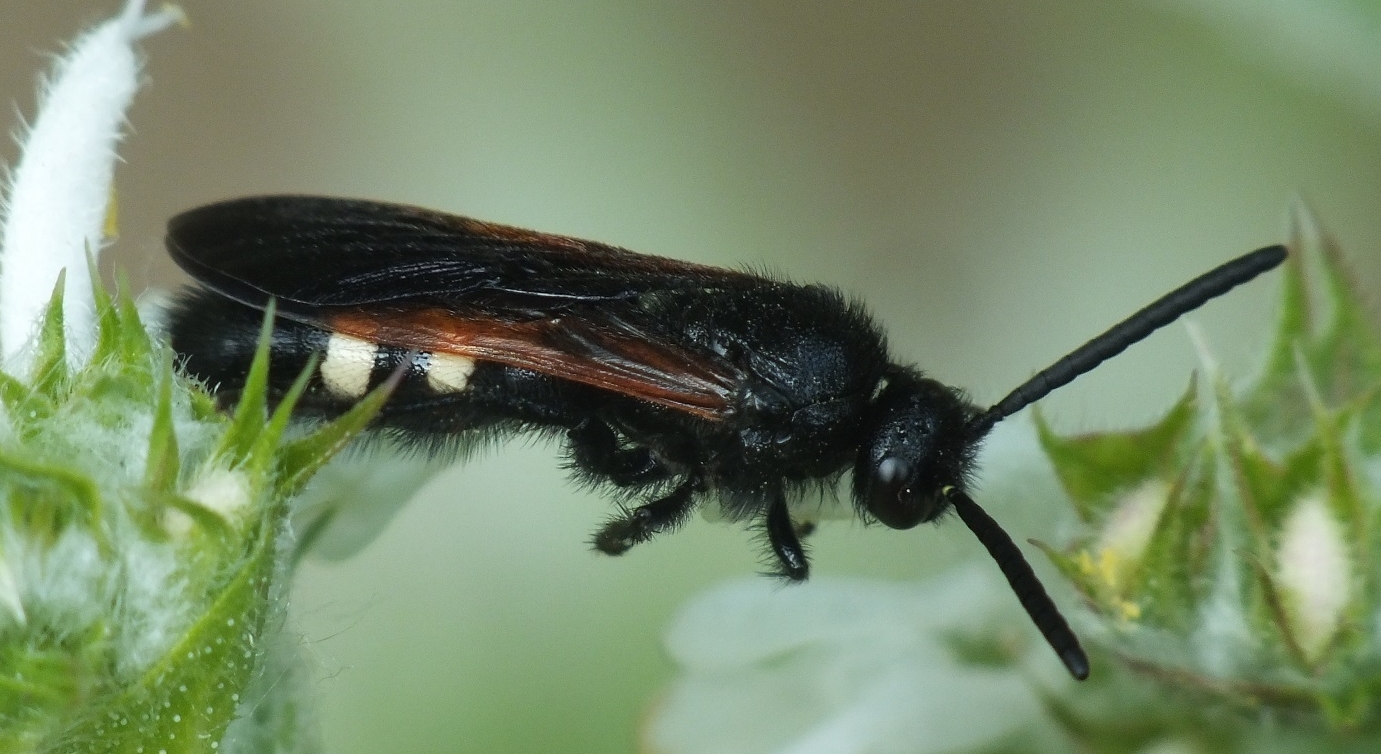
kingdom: Animalia
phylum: Arthropoda
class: Insecta
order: Hymenoptera
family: Vespidae
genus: Vespa
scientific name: Vespa sexmaculata
